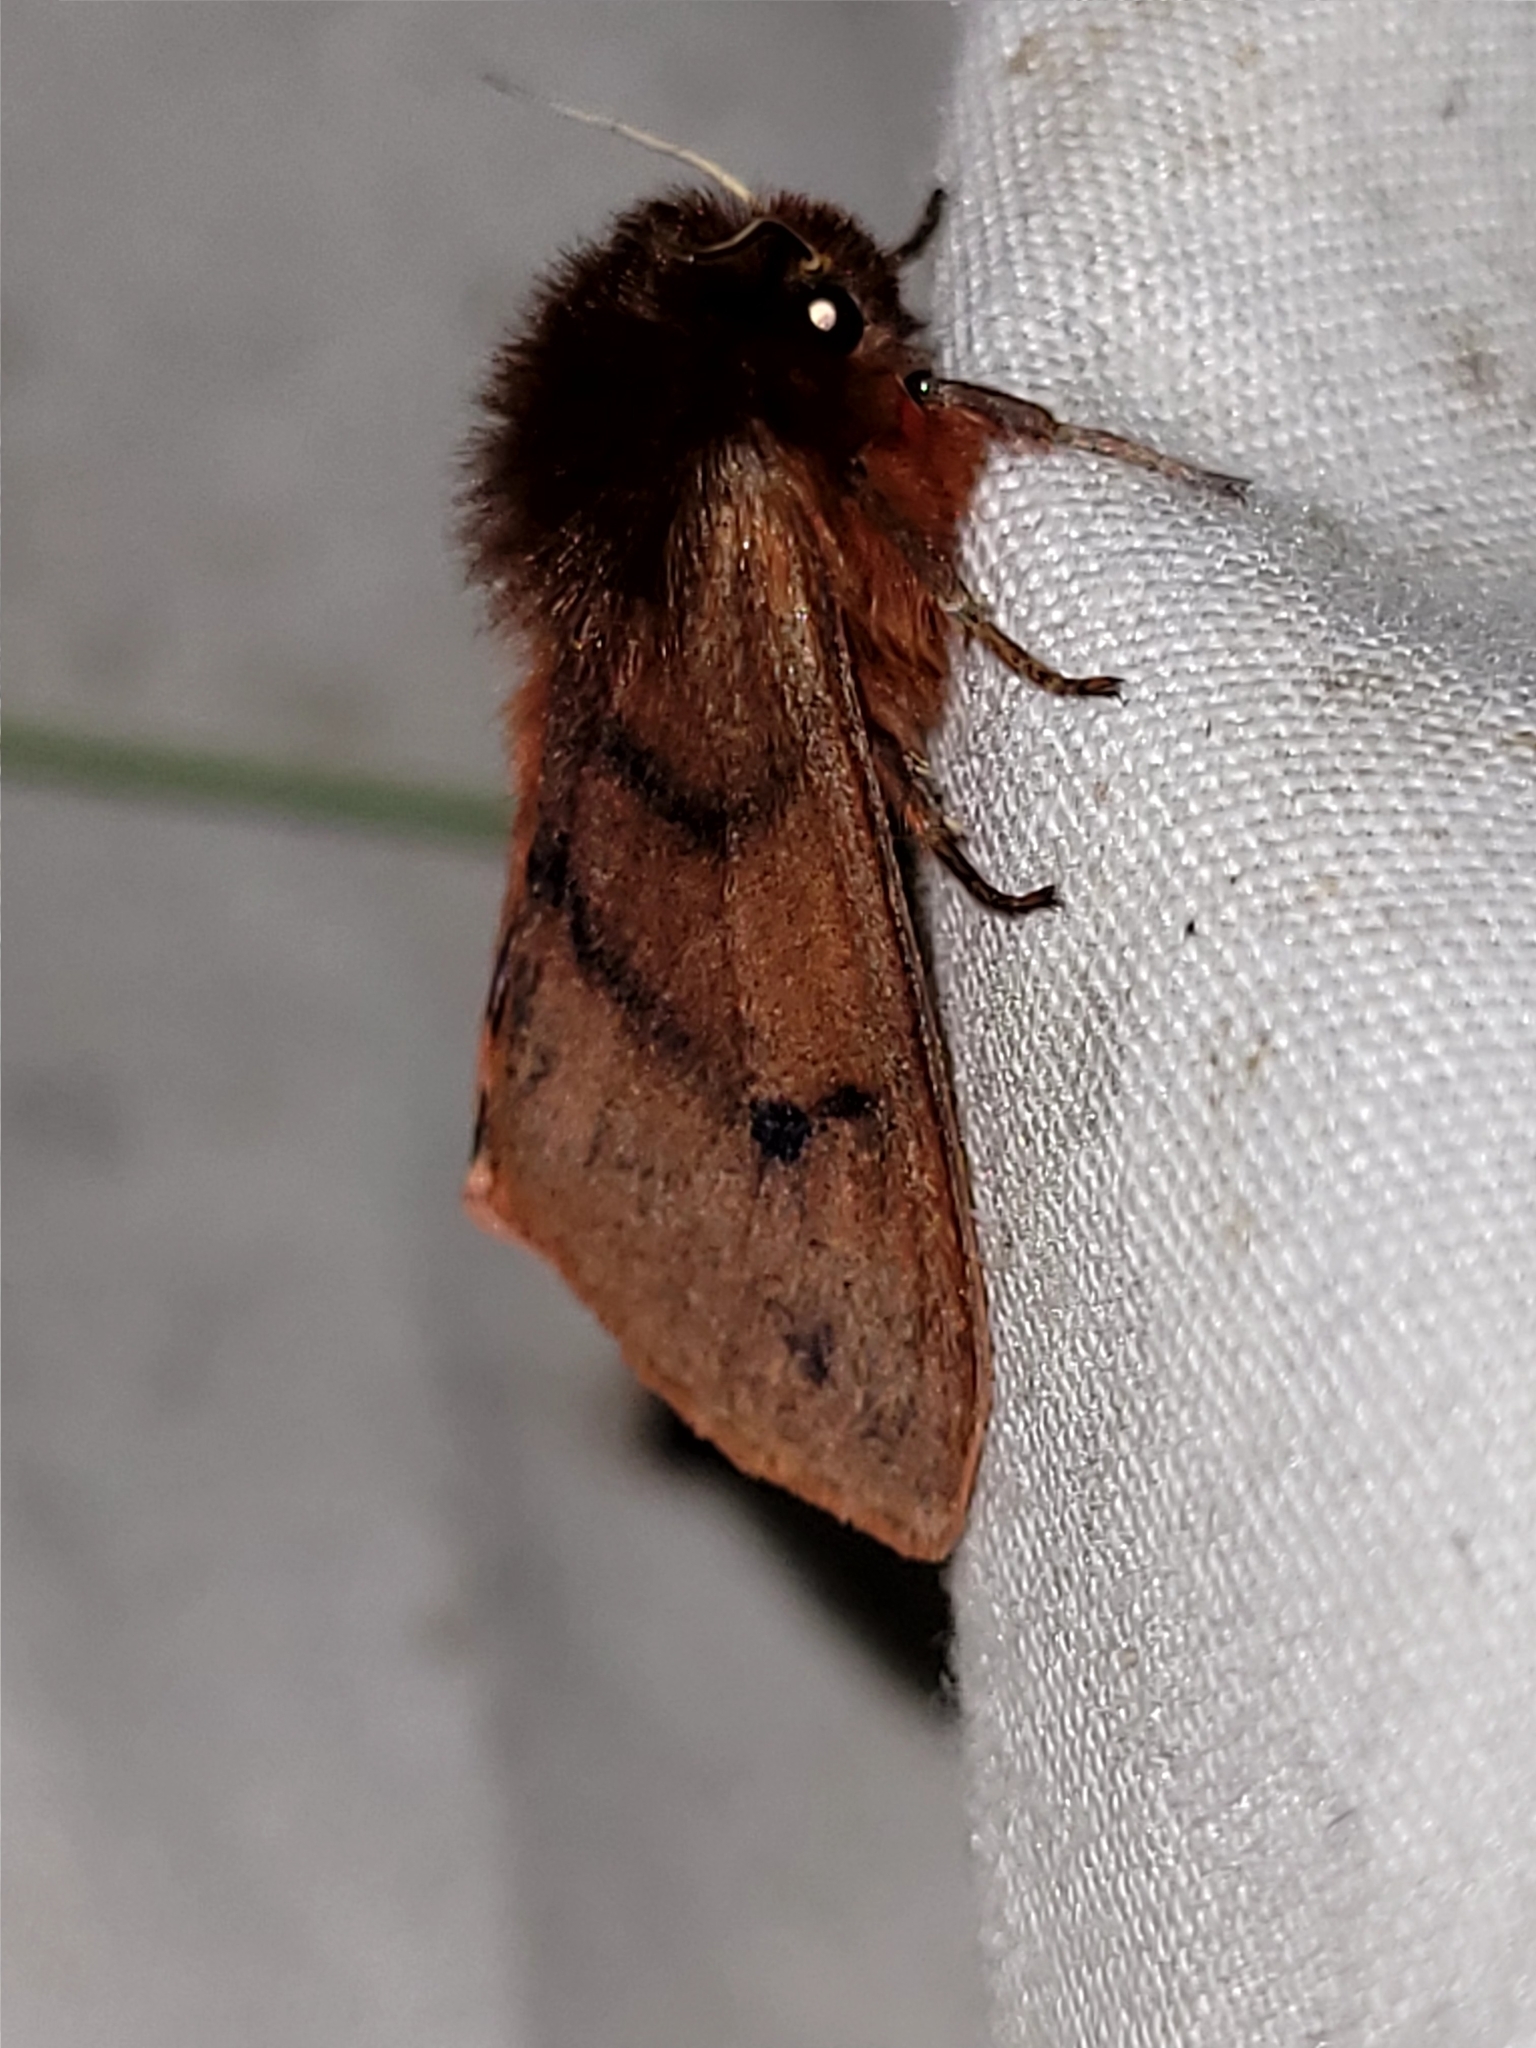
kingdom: Animalia
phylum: Arthropoda
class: Insecta
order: Lepidoptera
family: Erebidae
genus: Phragmatobia
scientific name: Phragmatobia assimilans
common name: Large ruby tiger moth
